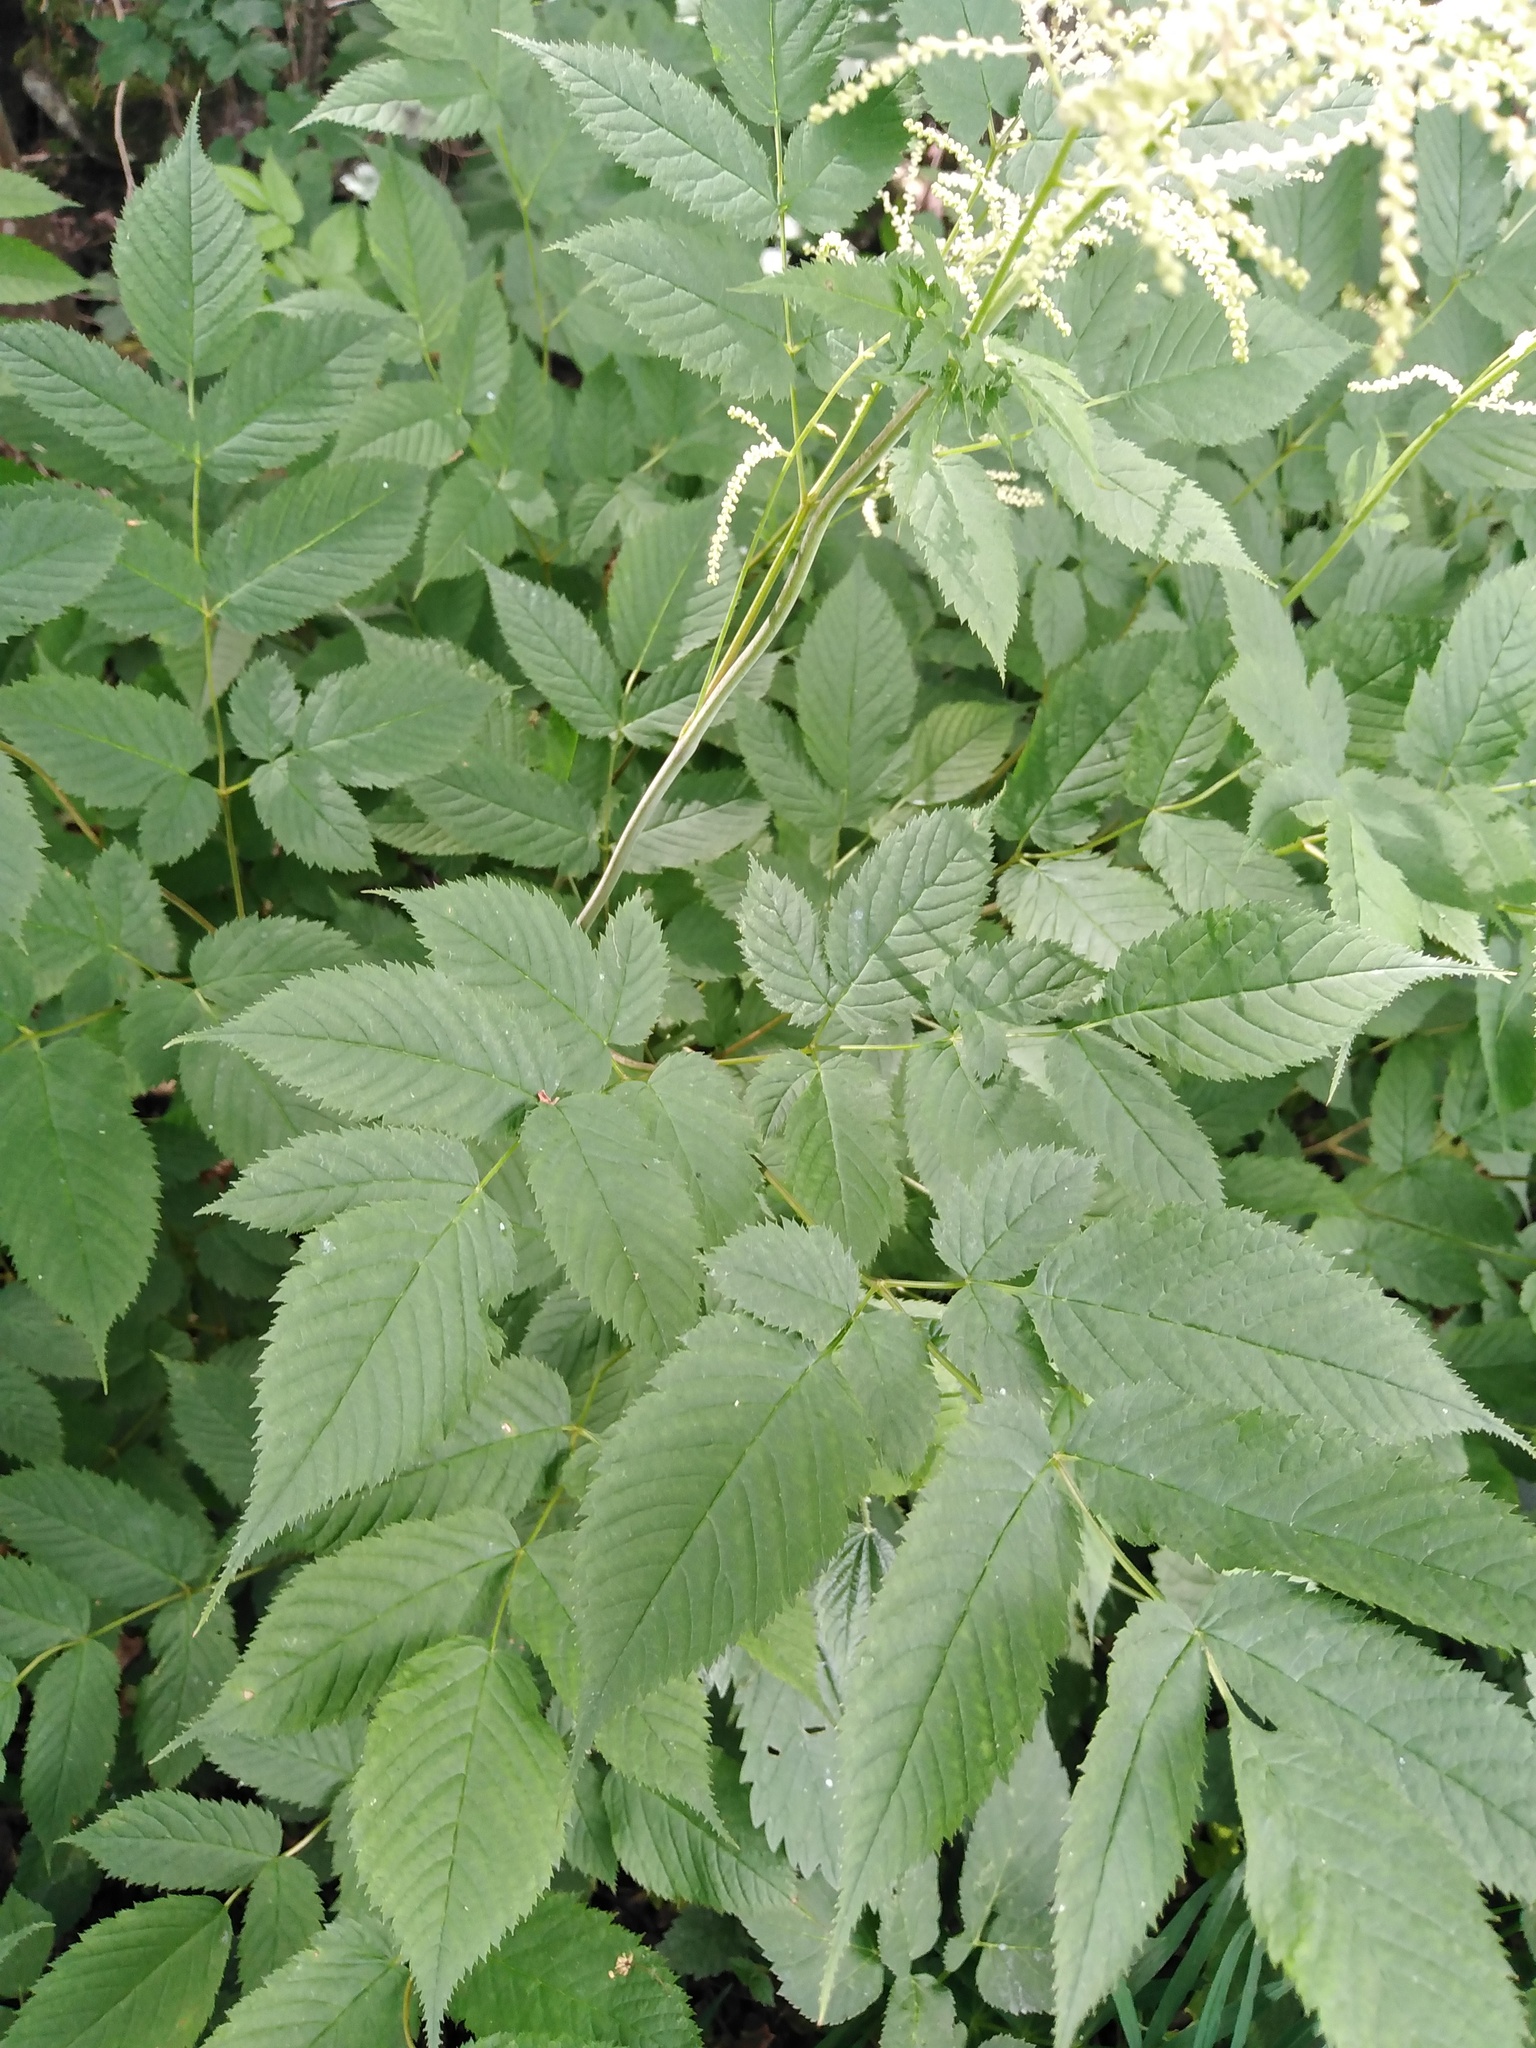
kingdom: Plantae
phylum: Tracheophyta
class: Magnoliopsida
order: Rosales
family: Rosaceae
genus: Aruncus
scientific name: Aruncus dioicus
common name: Buck's-beard
